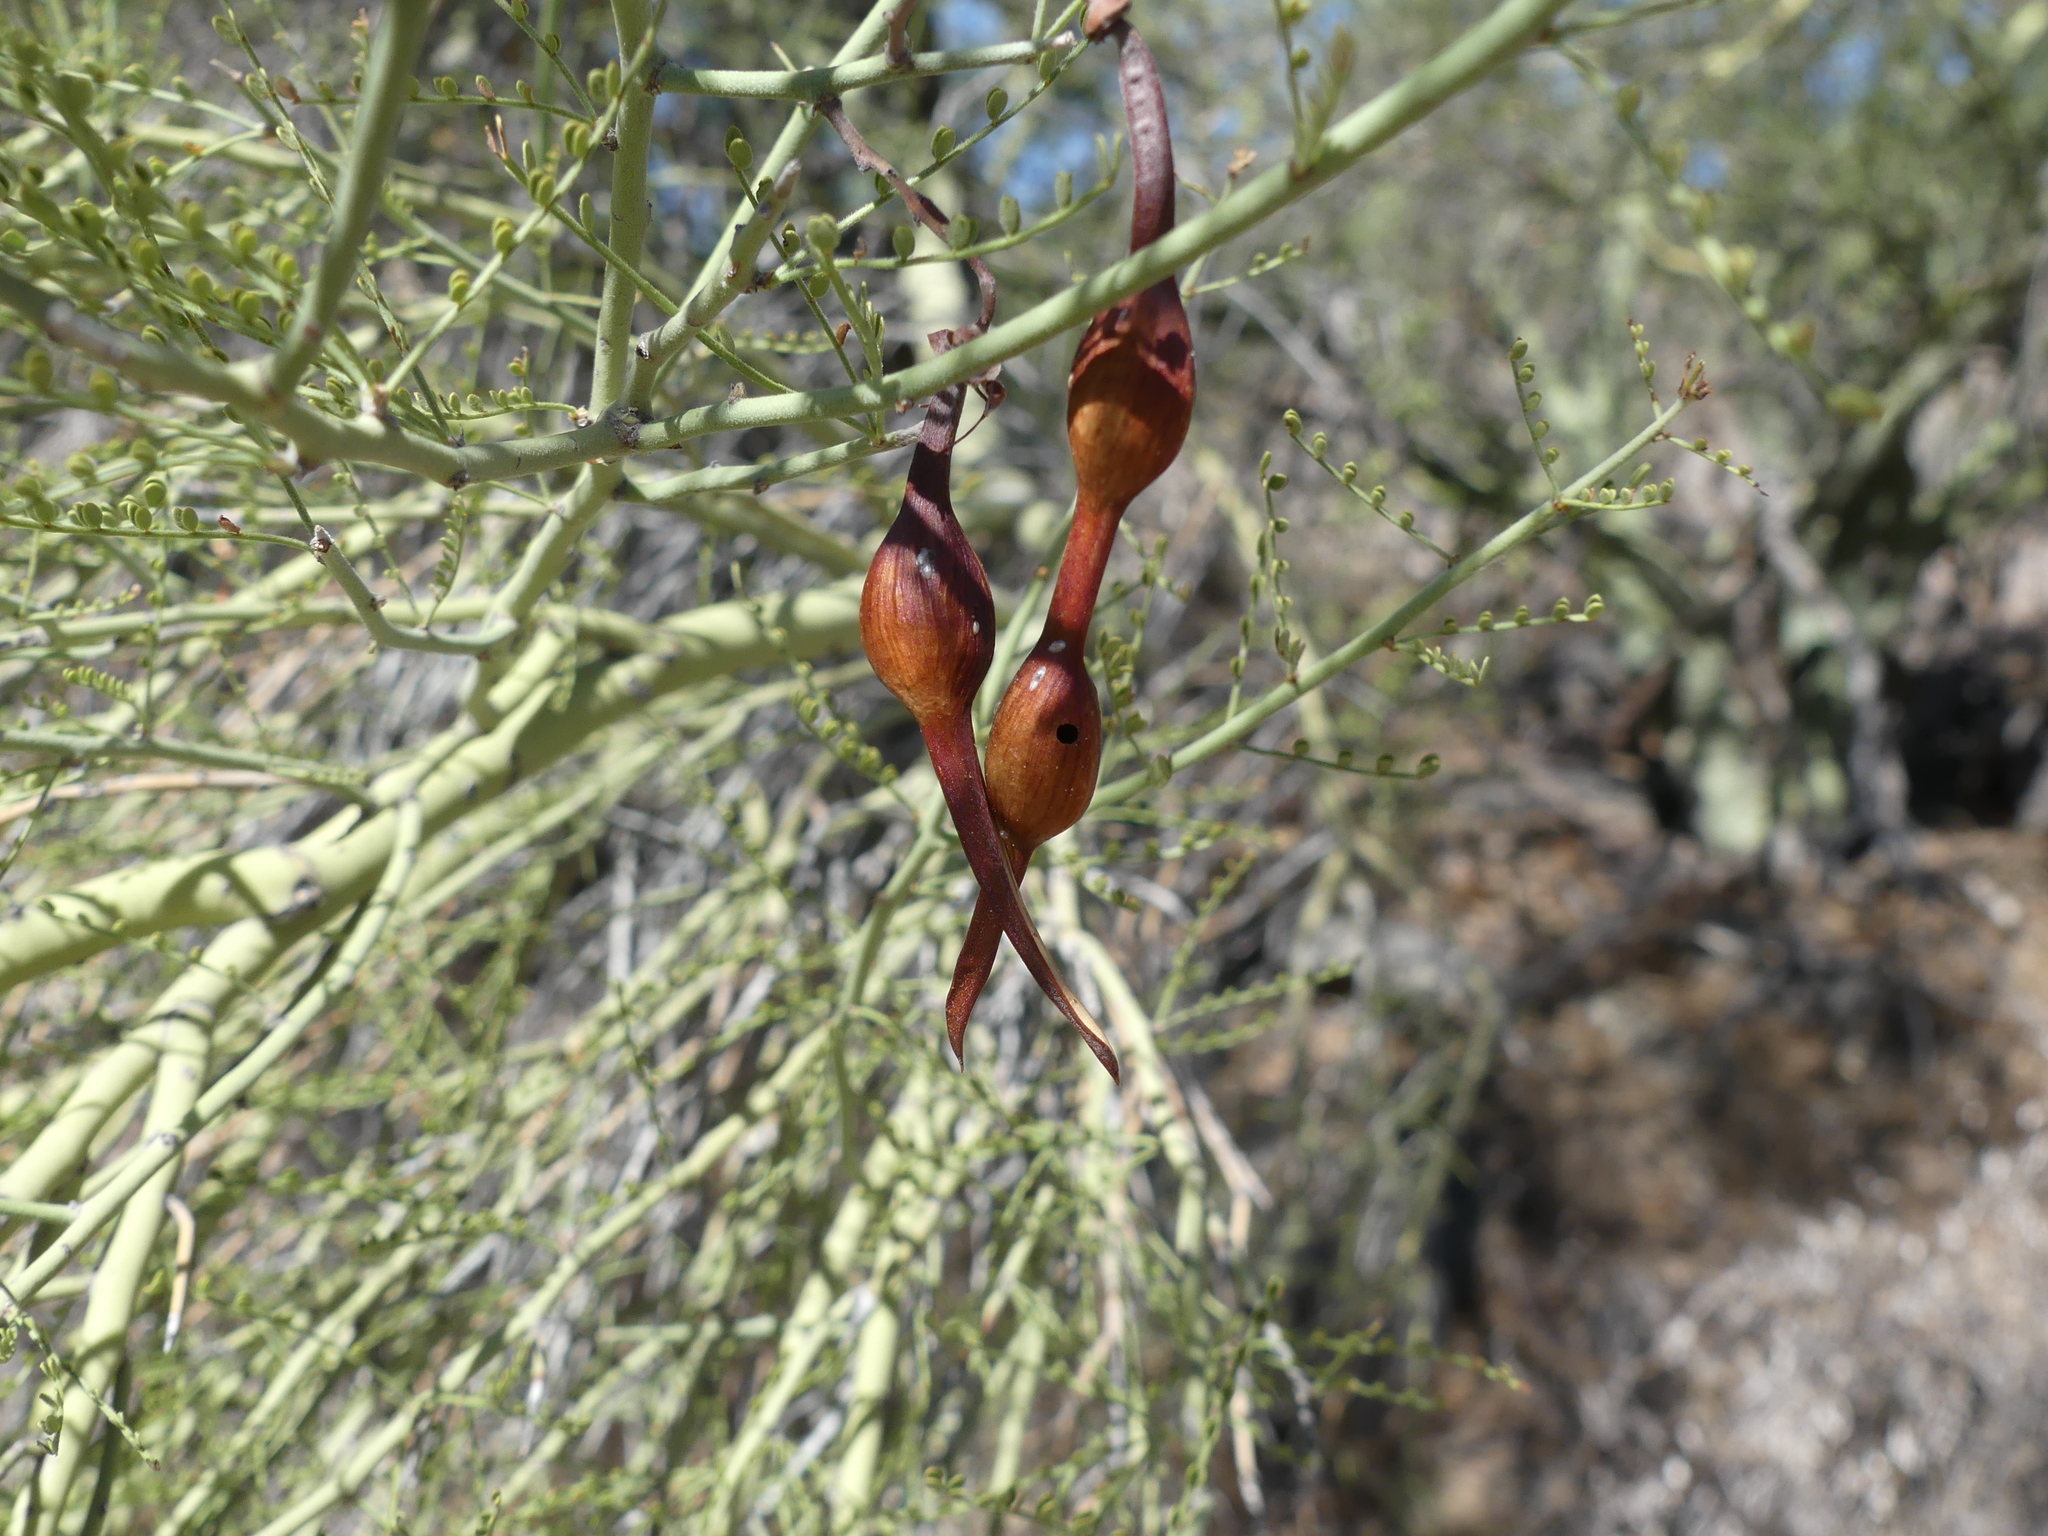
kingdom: Plantae
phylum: Tracheophyta
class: Magnoliopsida
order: Fabales
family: Fabaceae
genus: Parkinsonia
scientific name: Parkinsonia microphylla
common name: Yellow paloverde
